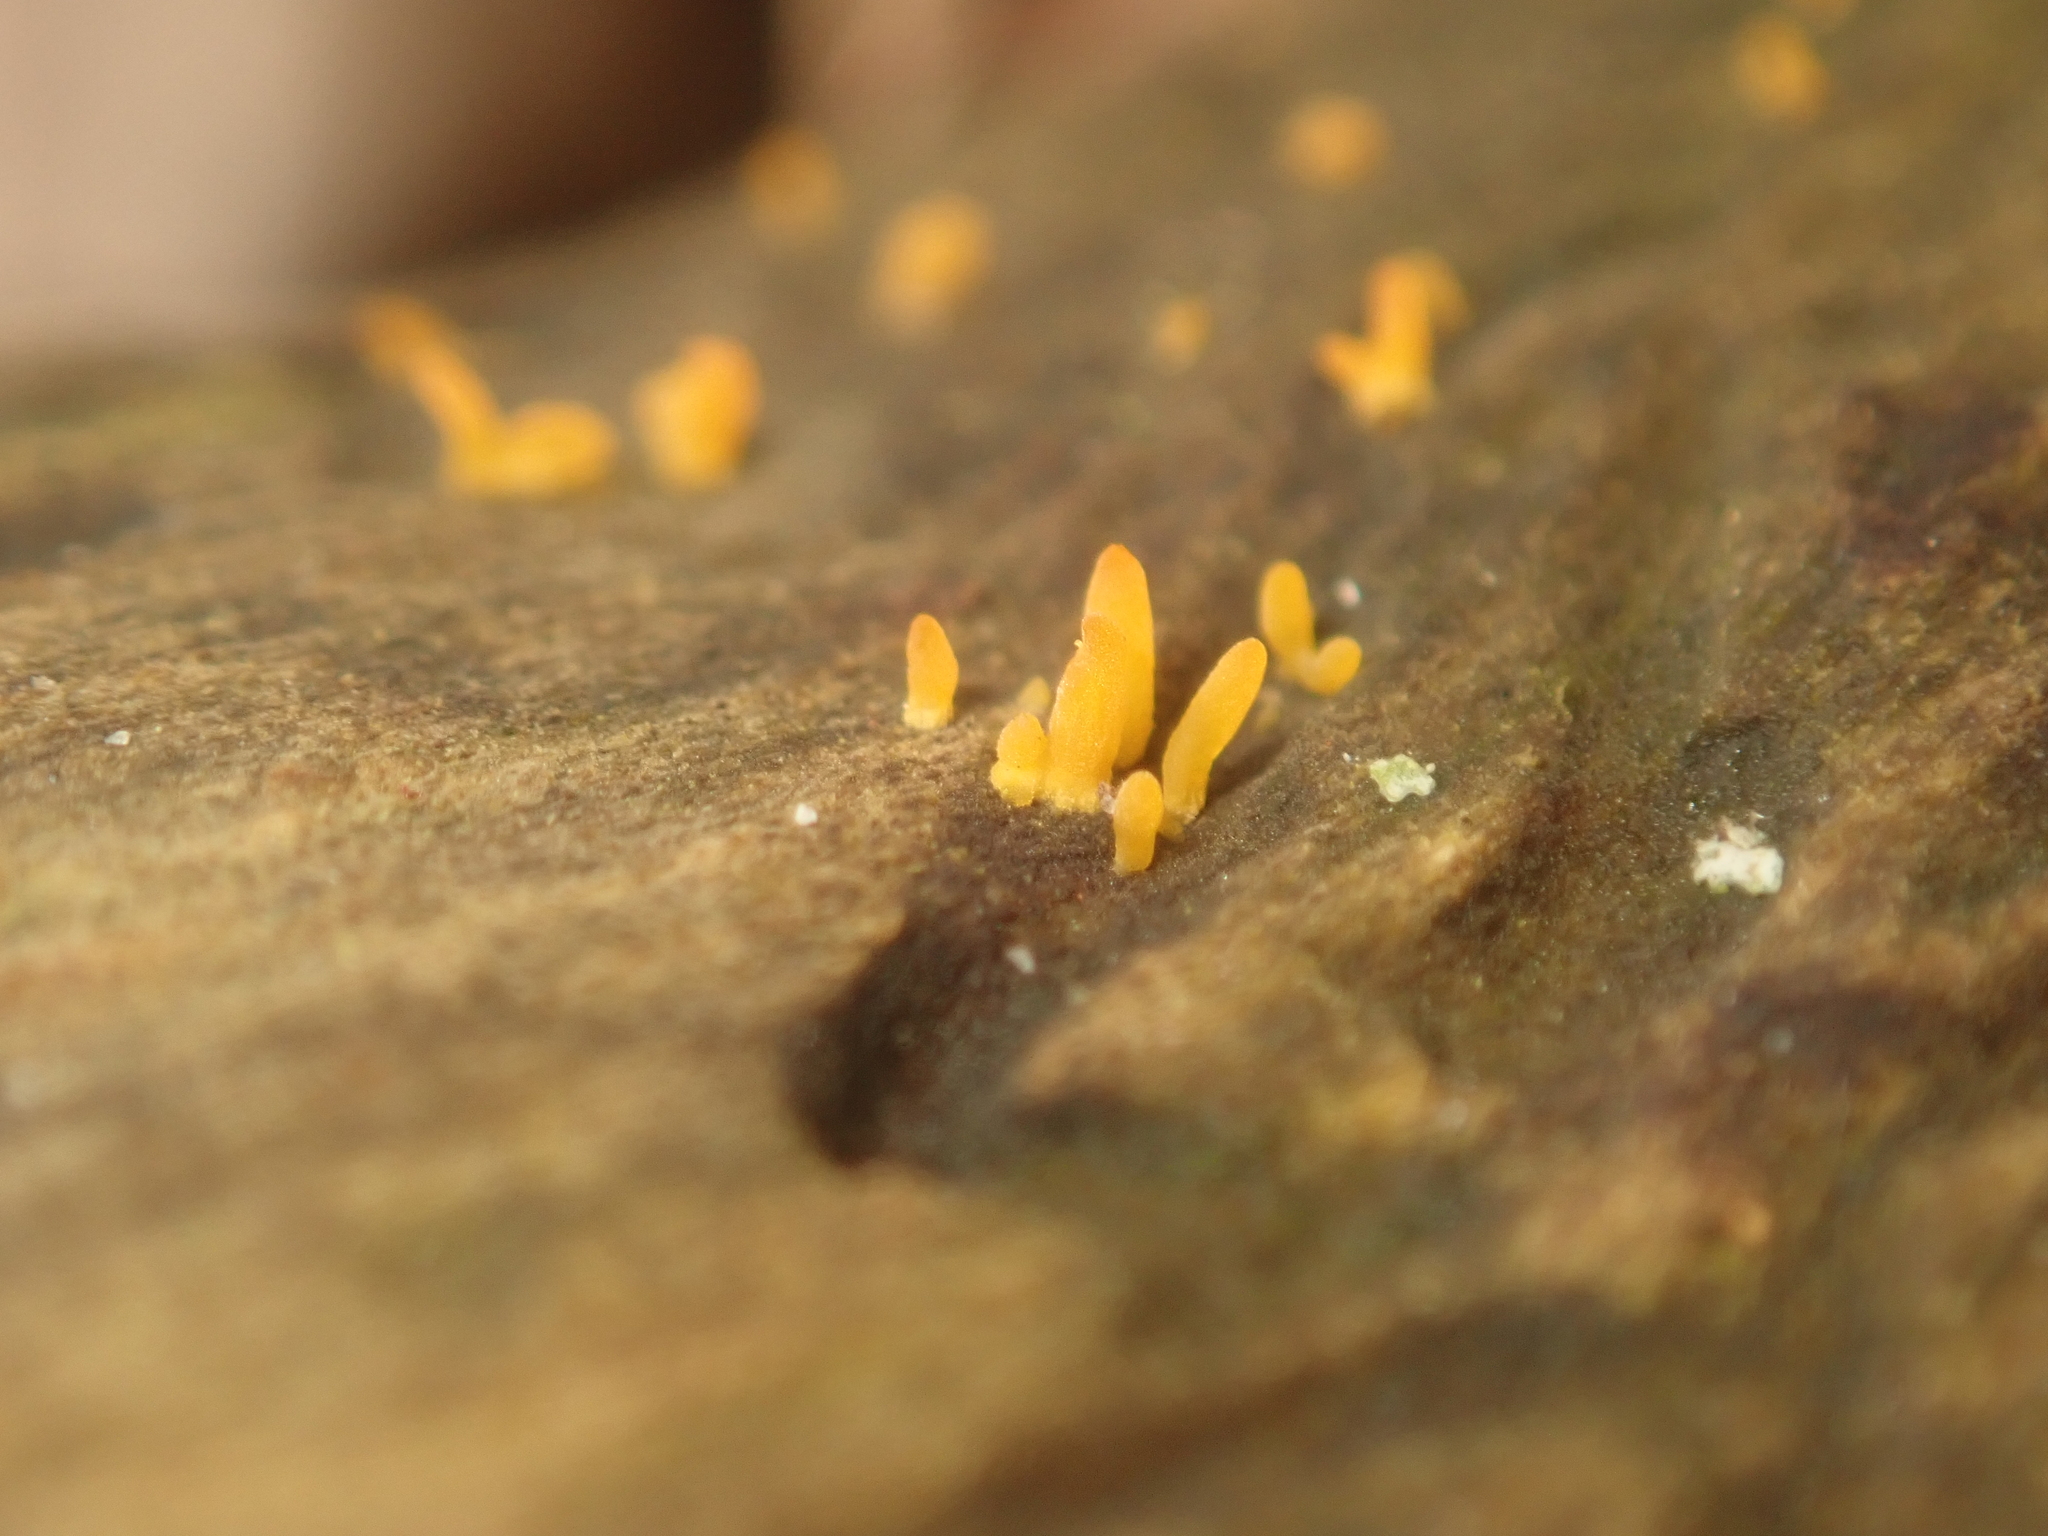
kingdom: Fungi
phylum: Basidiomycota
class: Dacrymycetes
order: Dacrymycetales
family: Dacrymycetaceae
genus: Calocera
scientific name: Calocera cornea
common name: Small stagshorn
